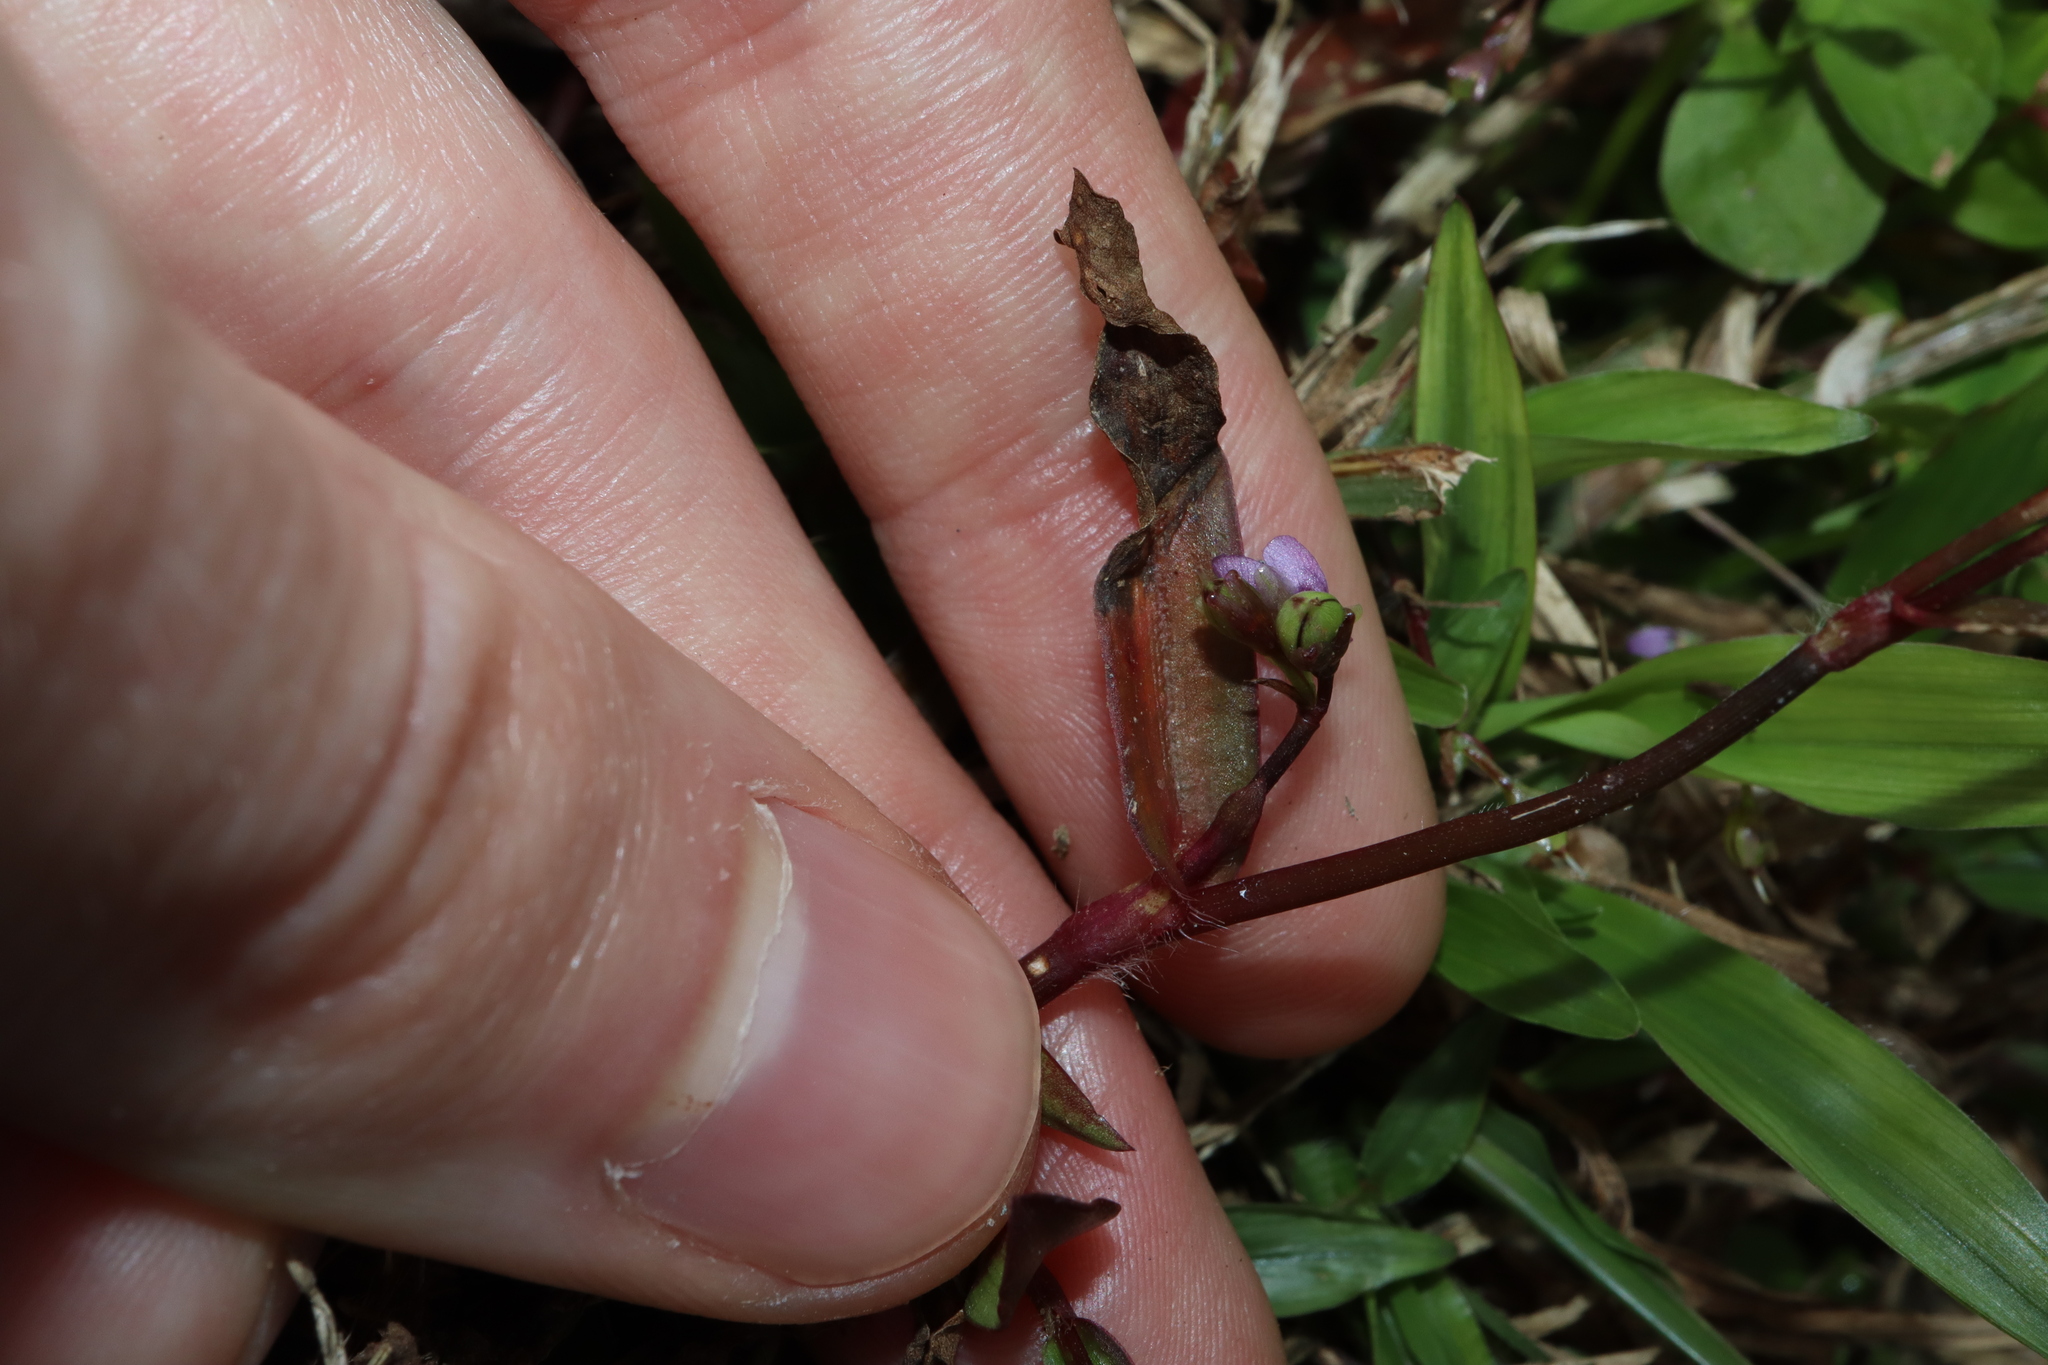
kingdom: Plantae
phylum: Tracheophyta
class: Liliopsida
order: Commelinales
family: Commelinaceae
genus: Murdannia
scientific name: Murdannia nudiflora
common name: Nakedstem dewflower
